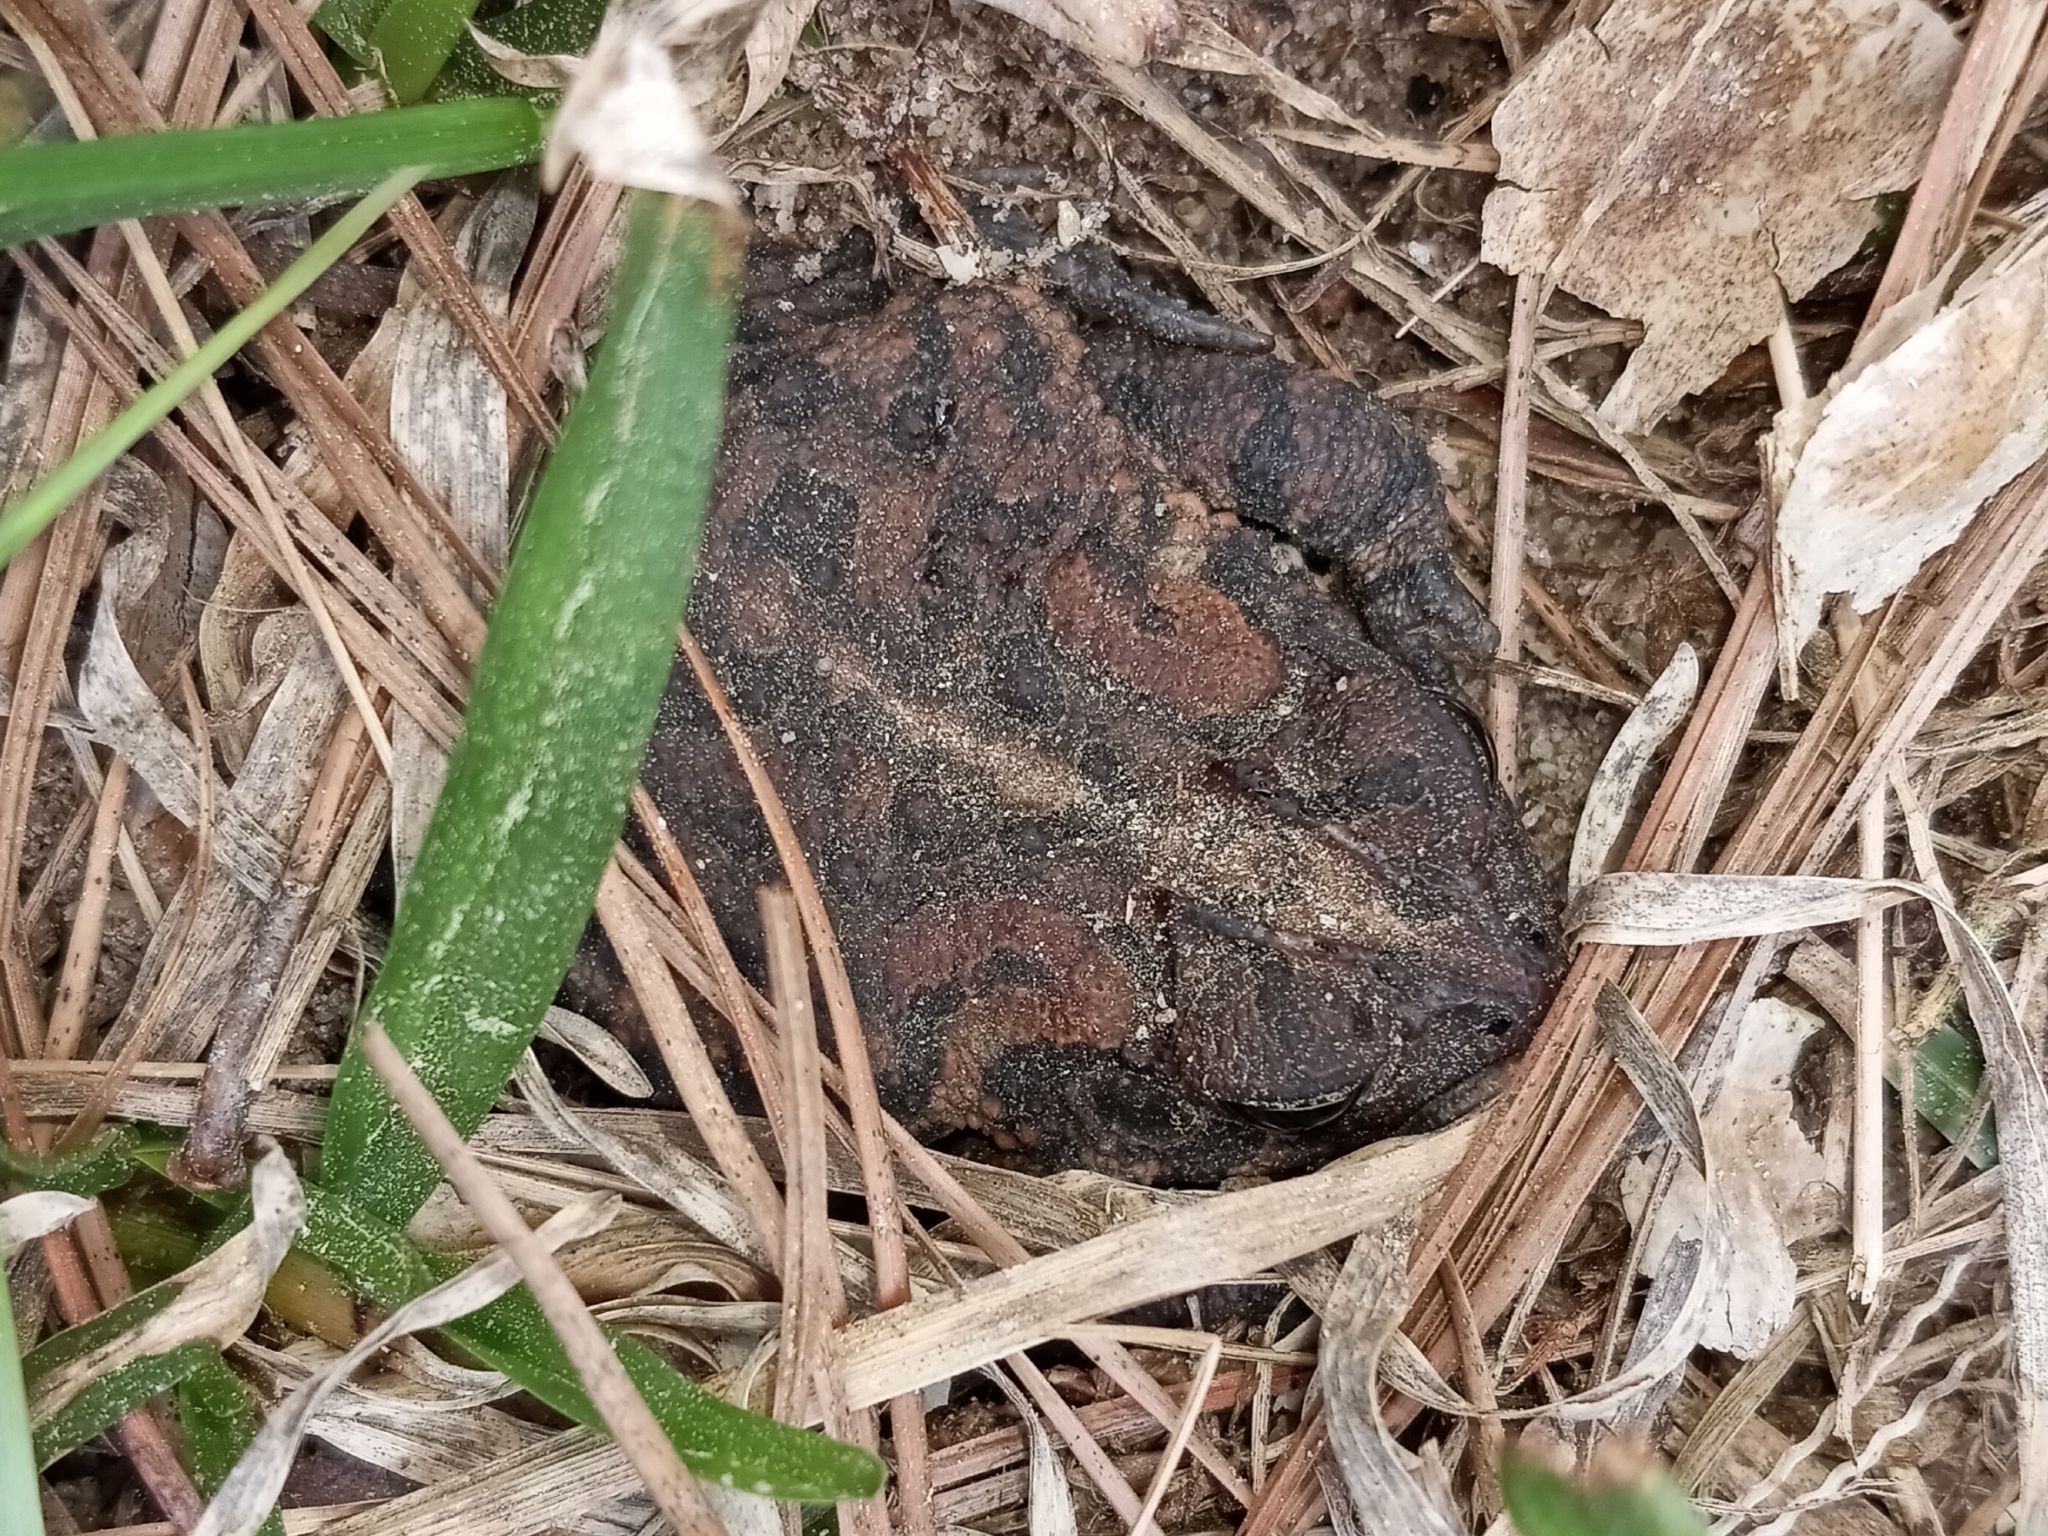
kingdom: Animalia
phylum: Chordata
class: Amphibia
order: Anura
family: Bufonidae
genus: Anaxyrus
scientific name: Anaxyrus terrestris
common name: Southern toad
